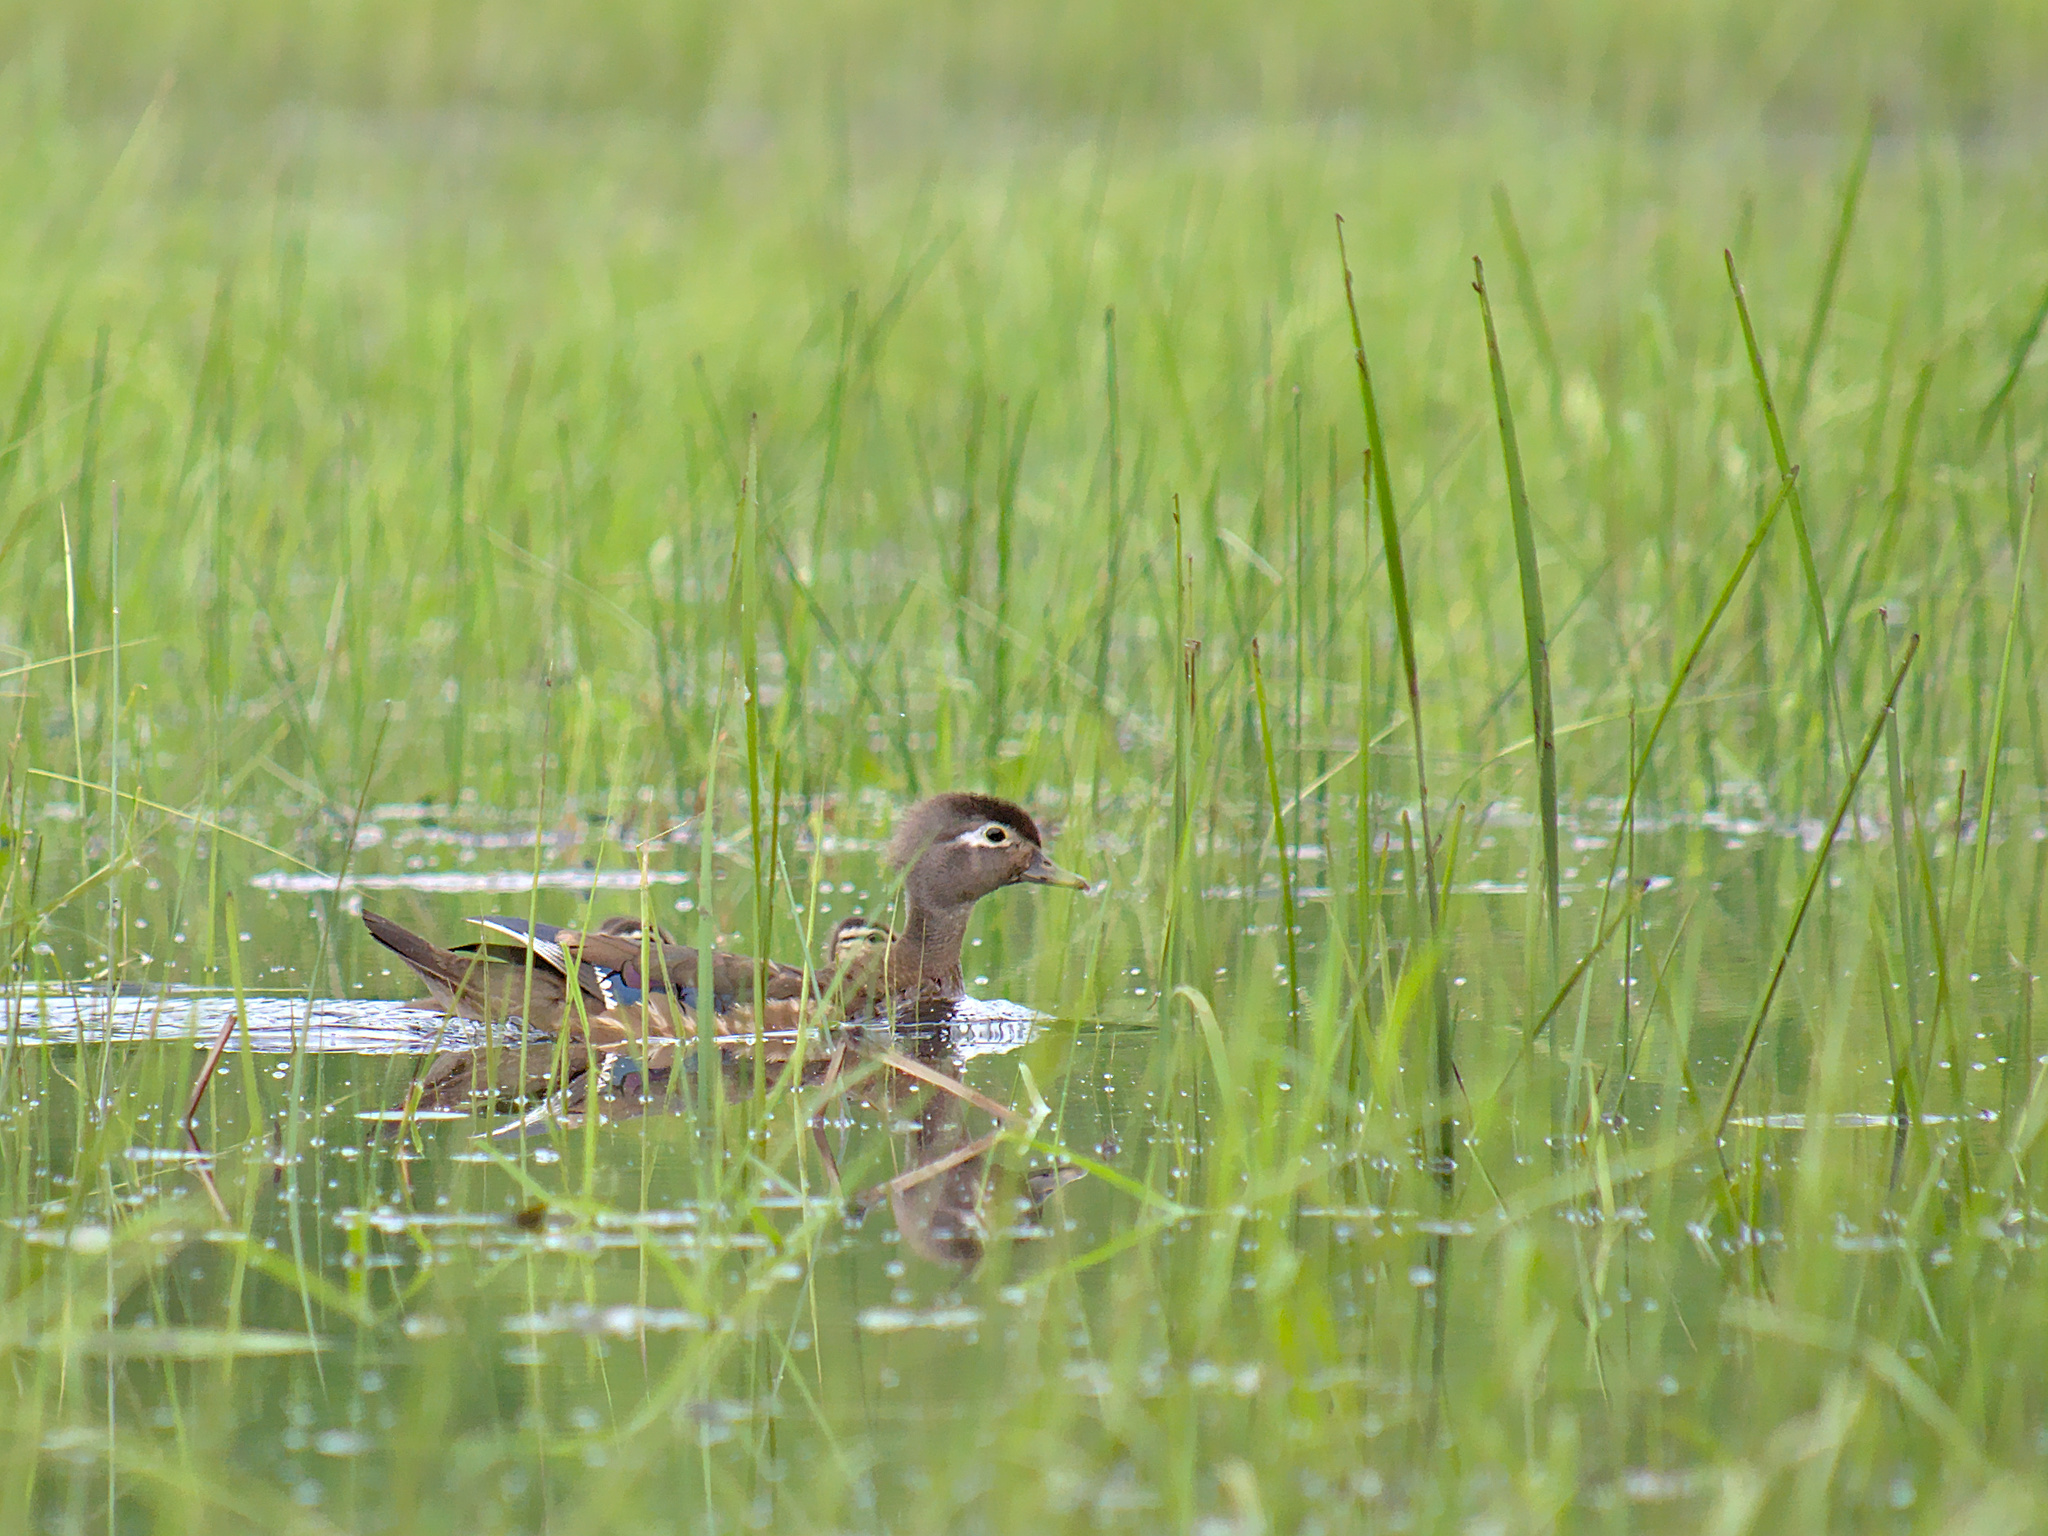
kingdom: Animalia
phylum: Chordata
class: Aves
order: Anseriformes
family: Anatidae
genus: Aix
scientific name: Aix sponsa
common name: Wood duck
